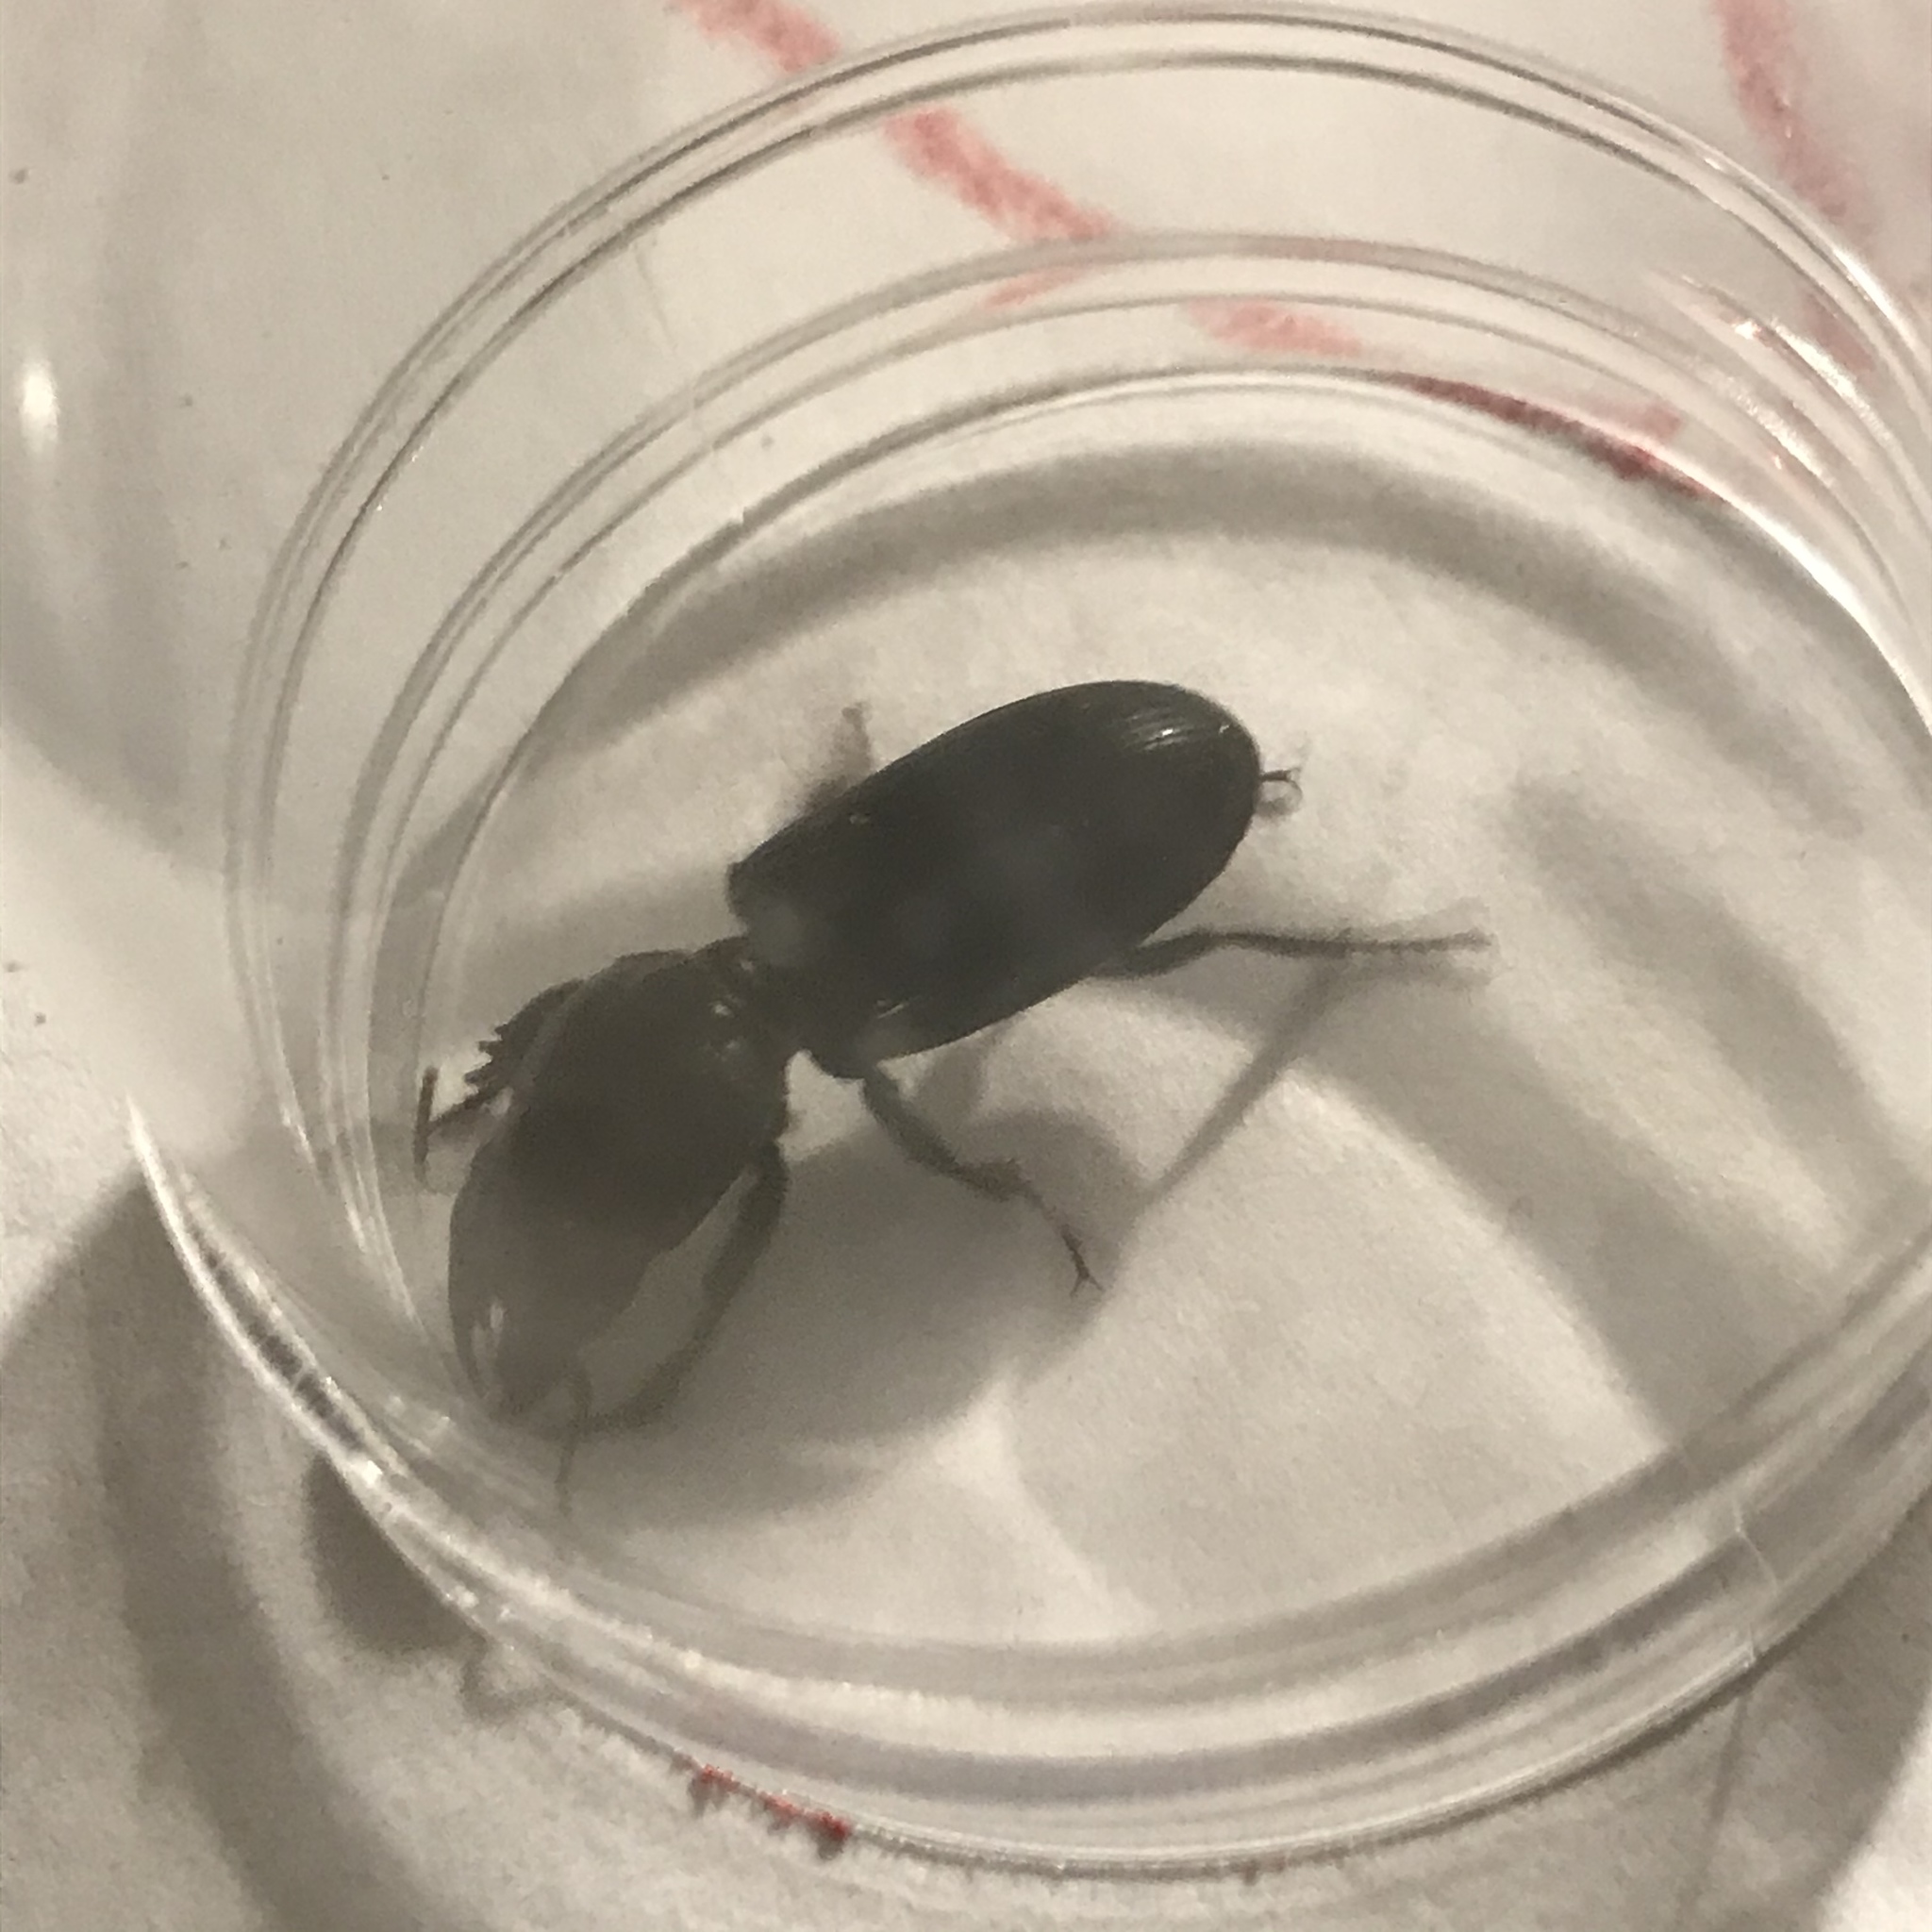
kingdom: Animalia
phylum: Arthropoda
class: Insecta
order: Coleoptera
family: Carabidae
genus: Scarites
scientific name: Scarites subterraneus
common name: Big-headed ground beetle
